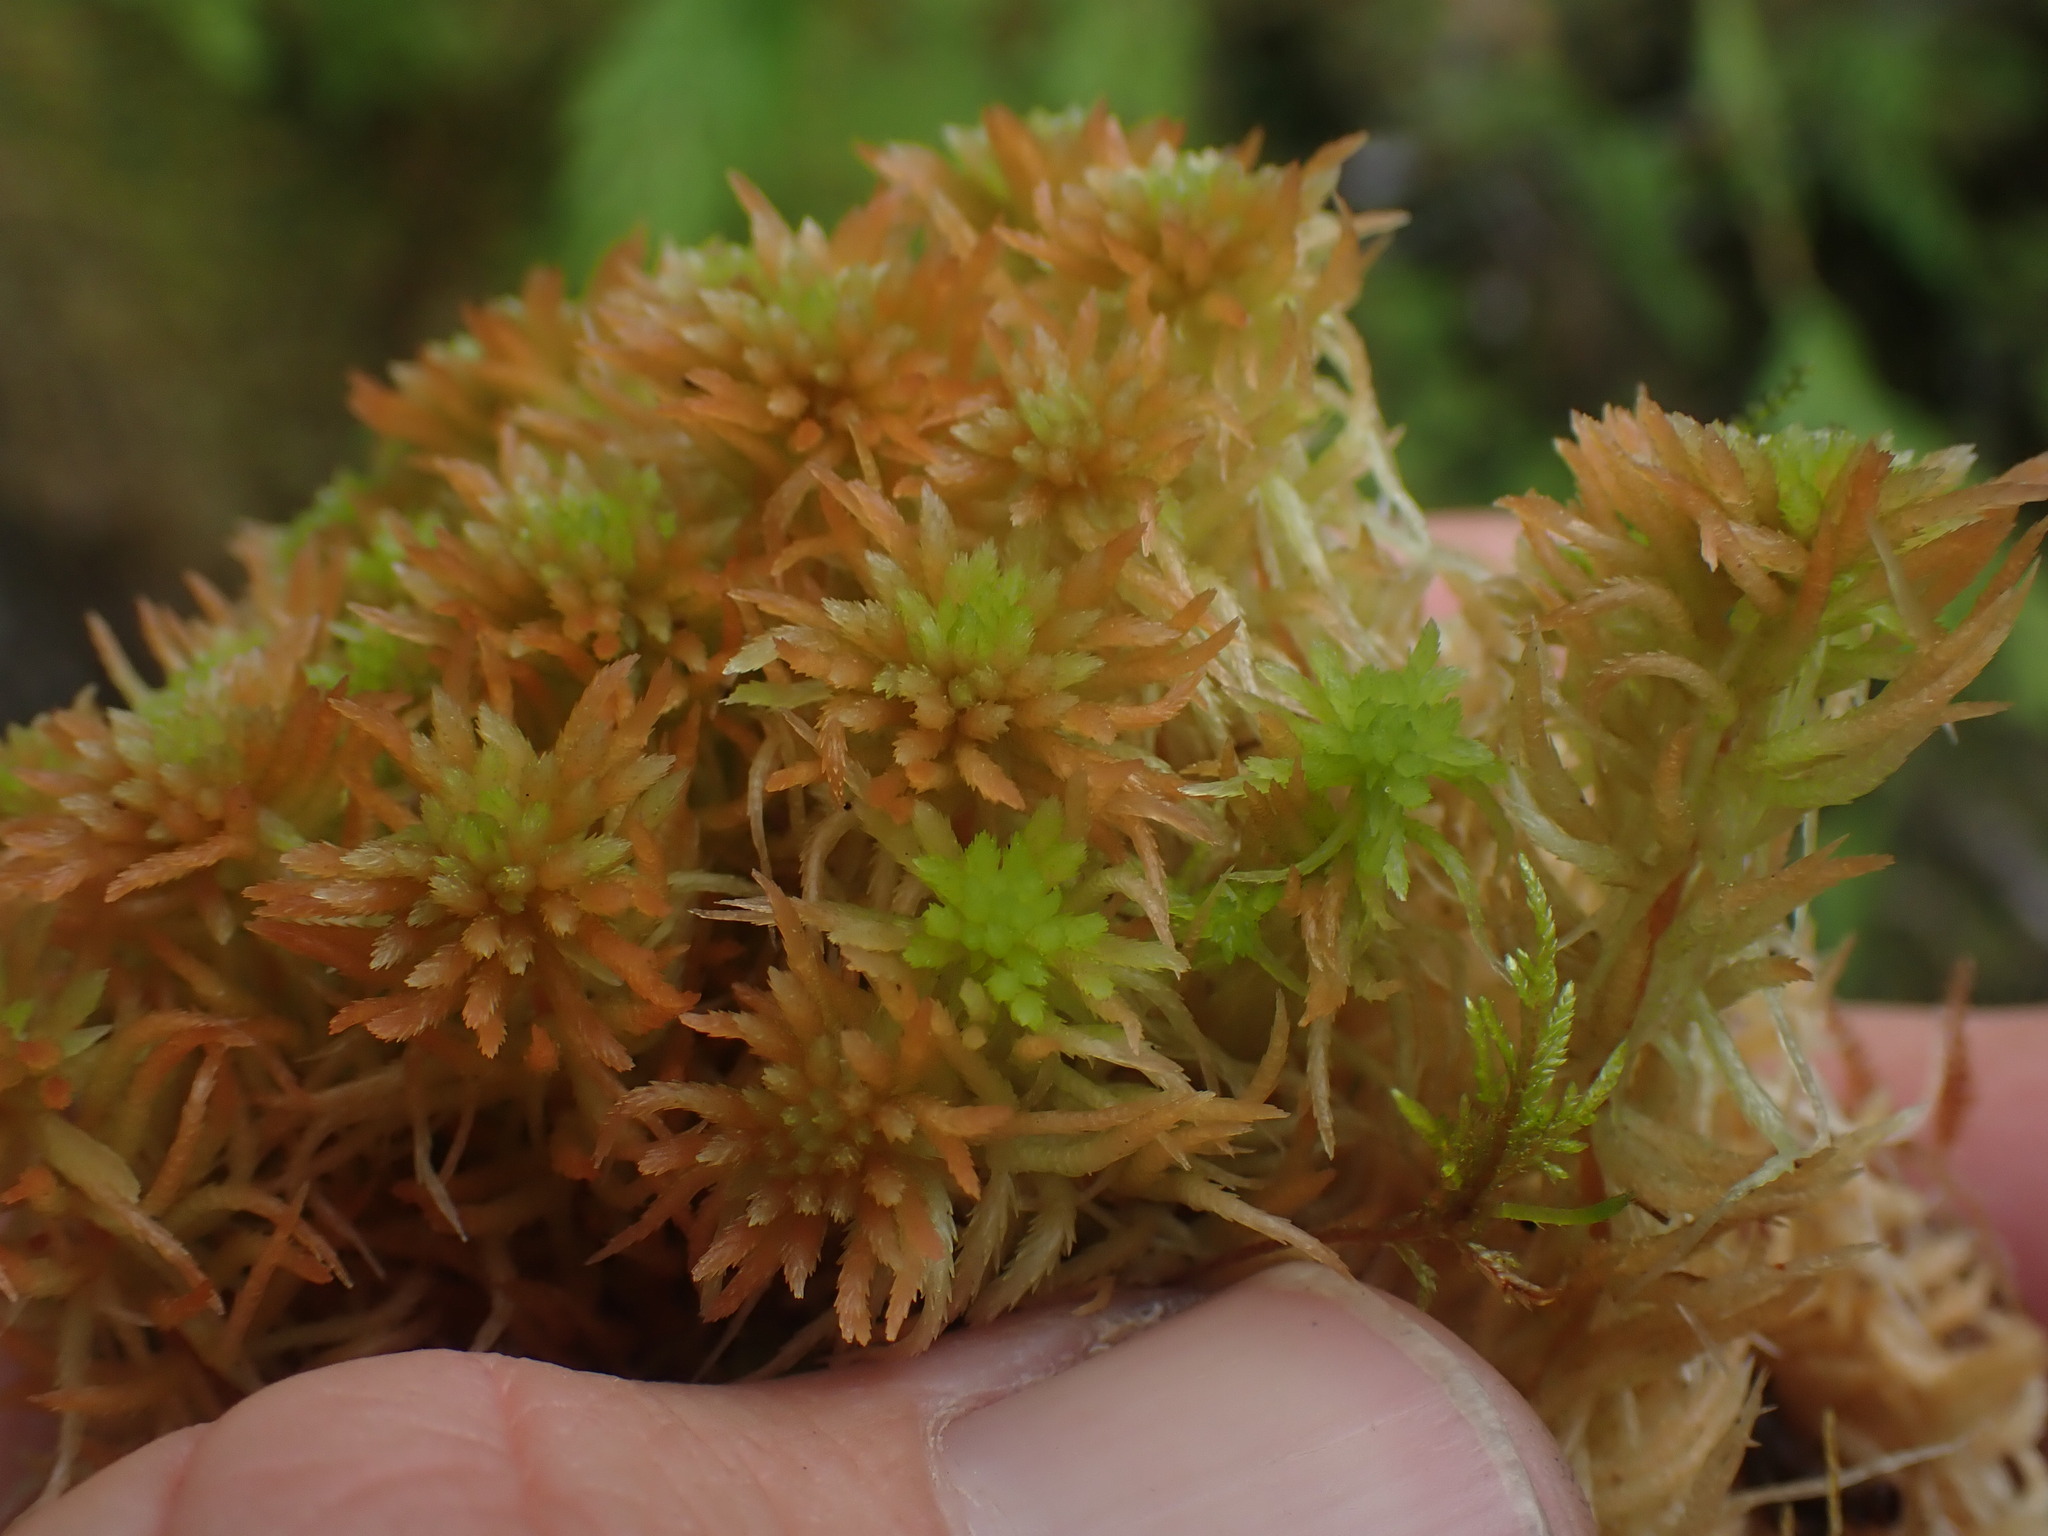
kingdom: Plantae
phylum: Bryophyta
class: Sphagnopsida
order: Sphagnales
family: Sphagnaceae
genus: Sphagnum
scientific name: Sphagnum rubiginosum
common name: Variegated peat moss
